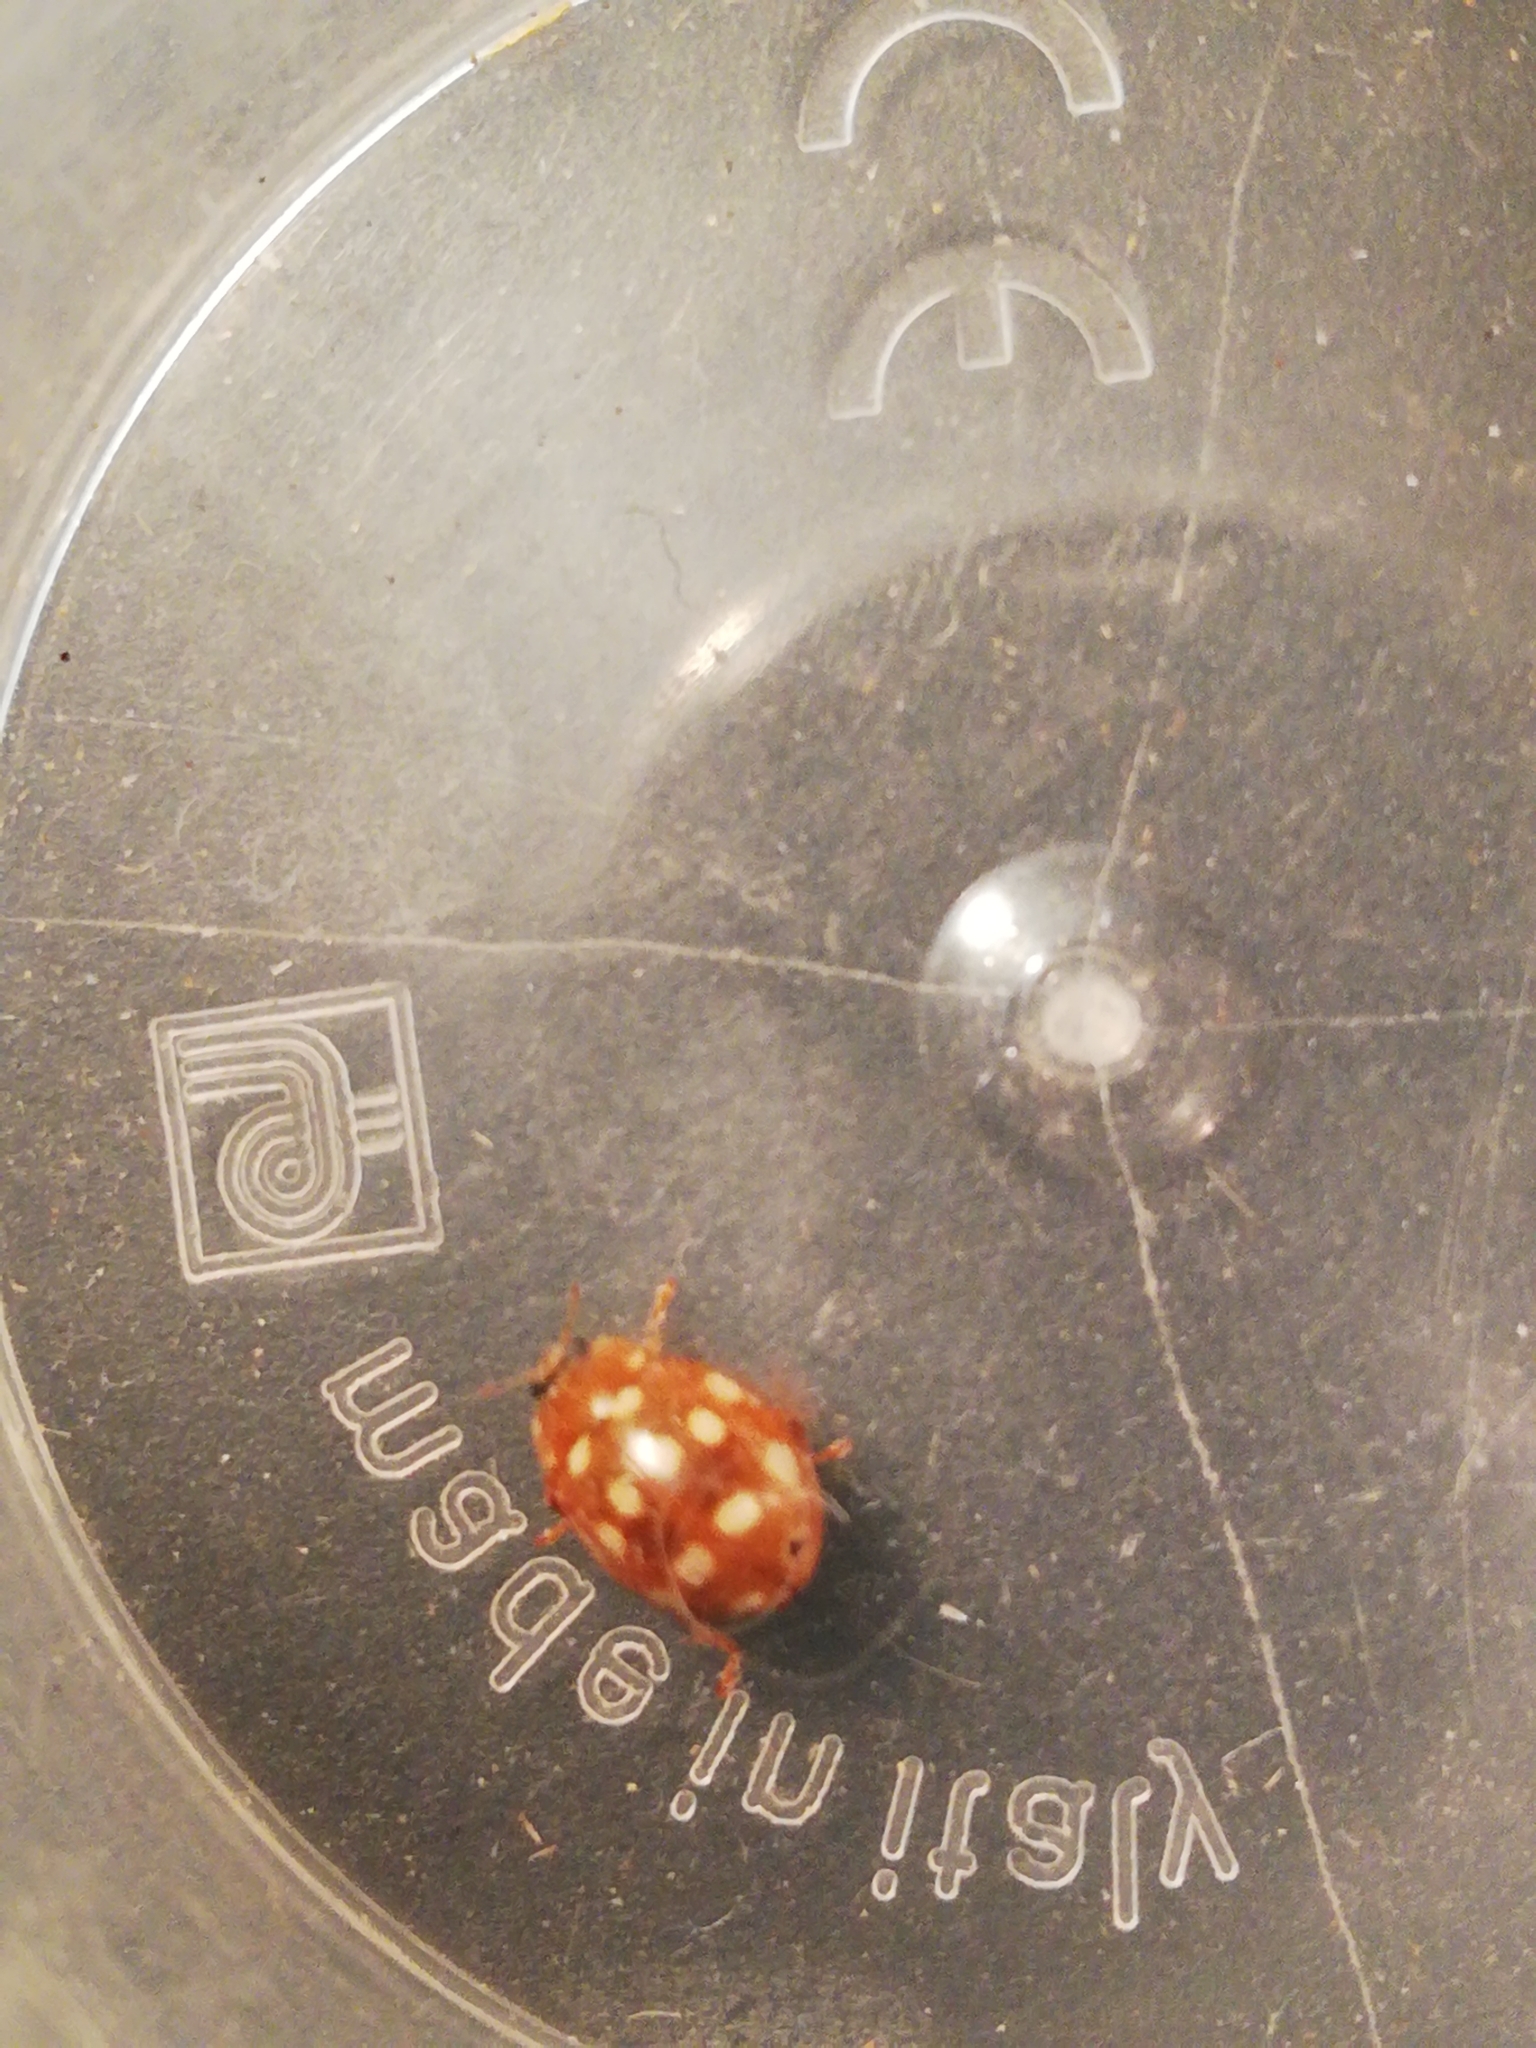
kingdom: Animalia
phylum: Arthropoda
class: Insecta
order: Coleoptera
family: Coccinellidae
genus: Calvia
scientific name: Calvia quatuordecimguttata
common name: Cream-spot ladybird
